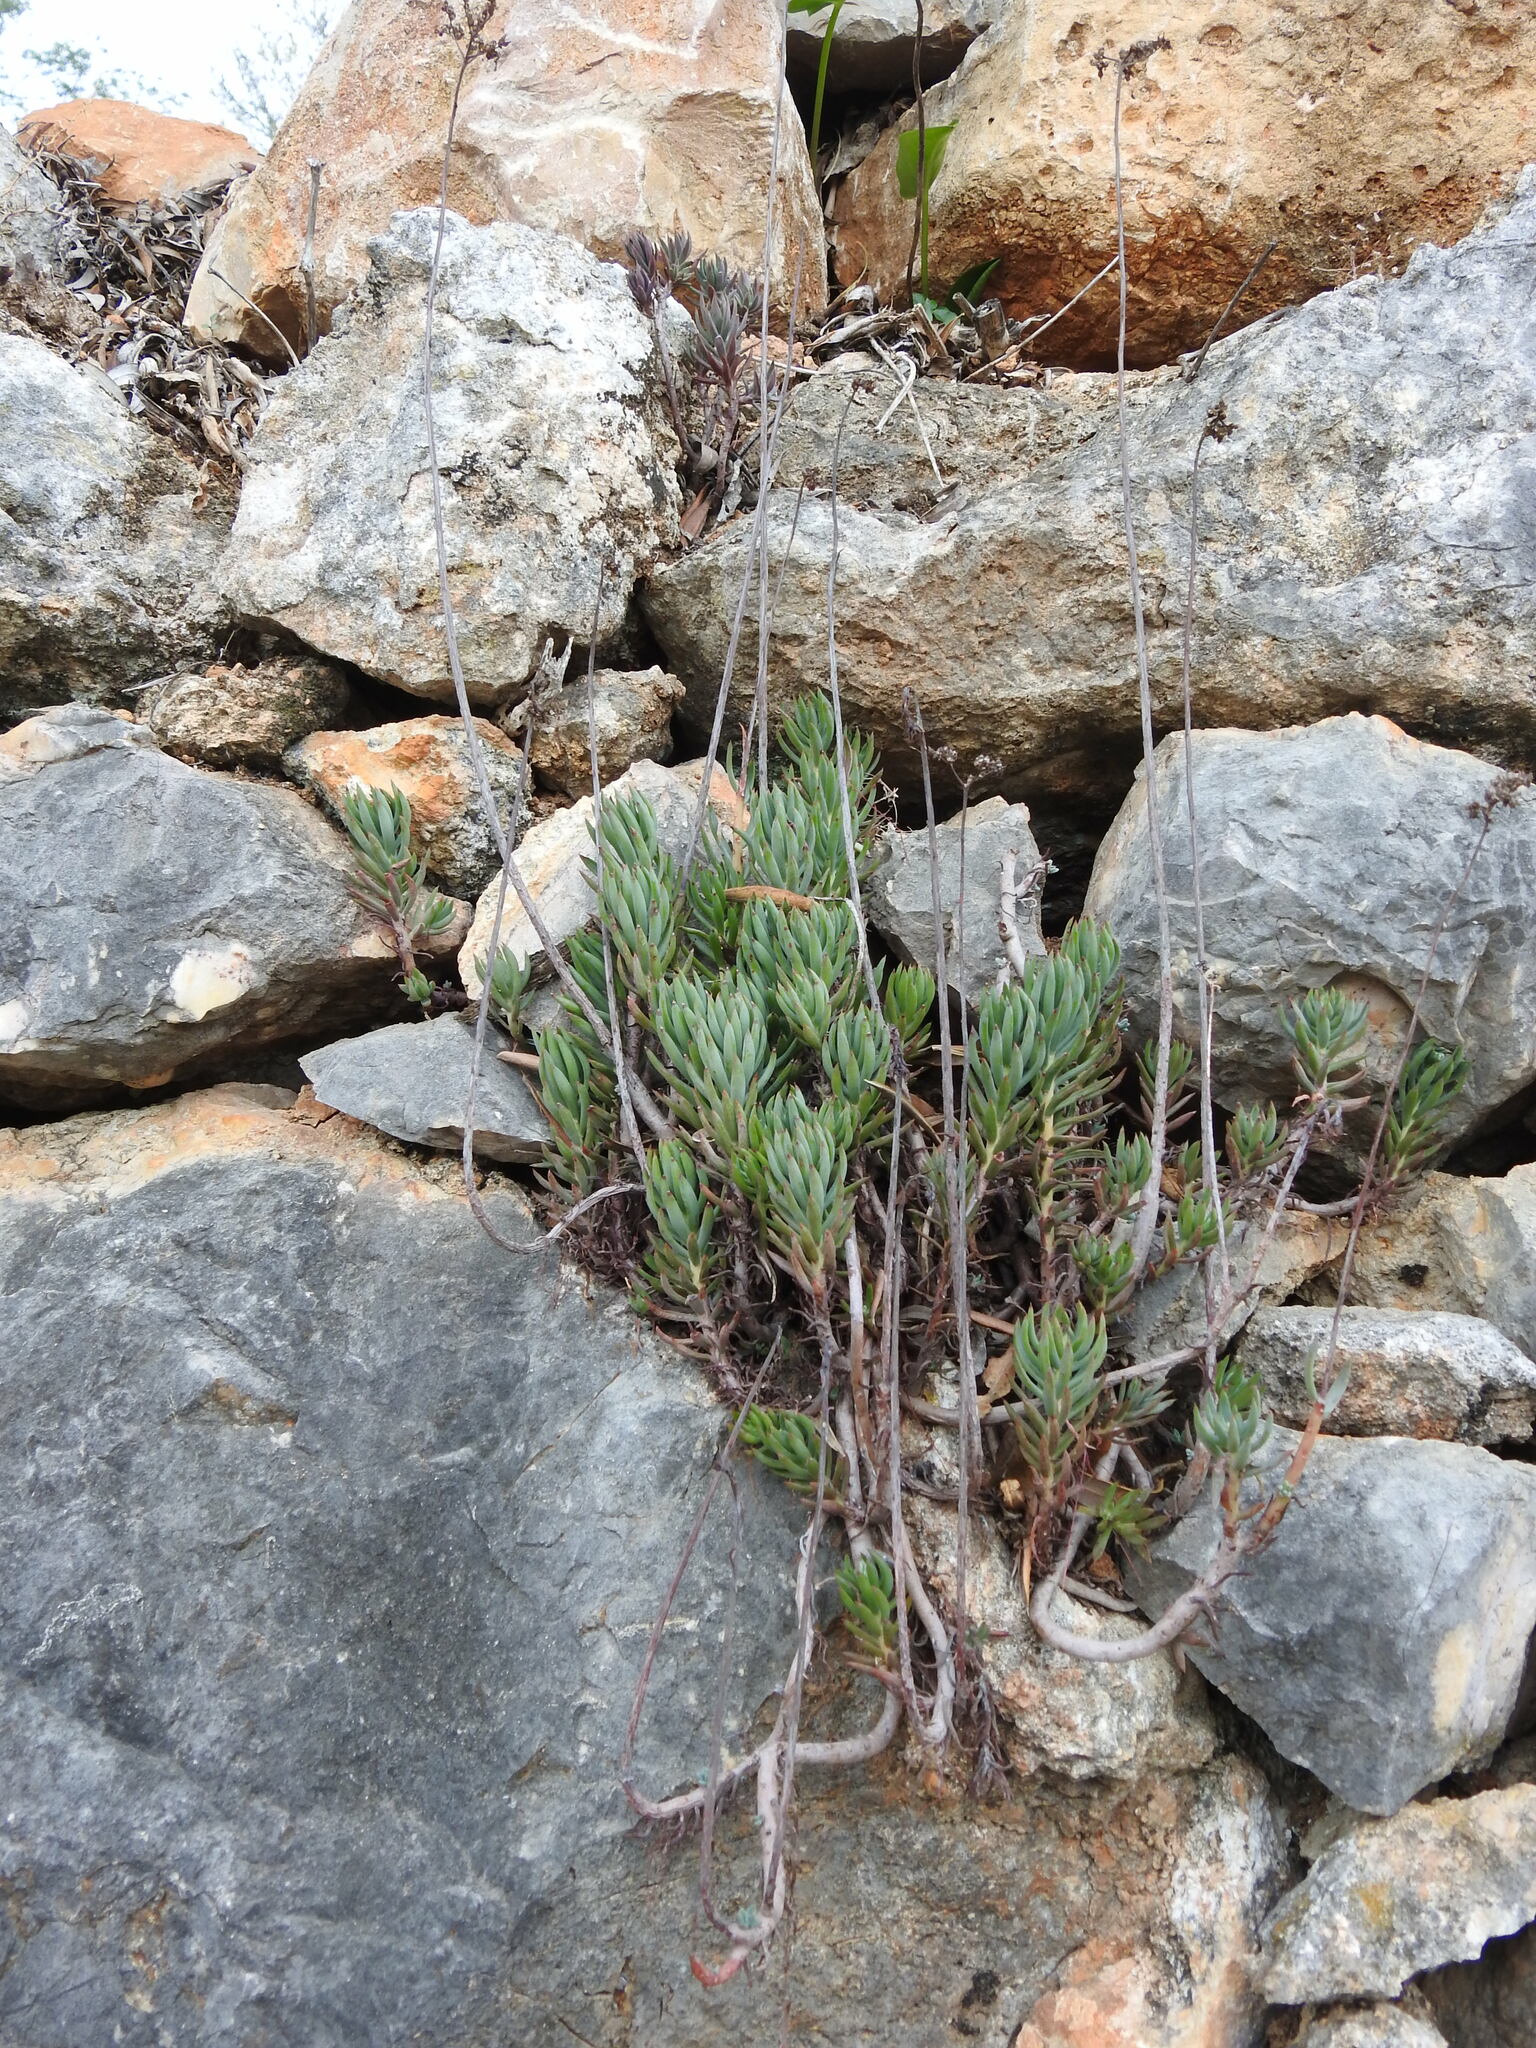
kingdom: Plantae
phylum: Tracheophyta
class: Magnoliopsida
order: Saxifragales
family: Crassulaceae
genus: Petrosedum
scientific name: Petrosedum sediforme
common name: Pale stonecrop
